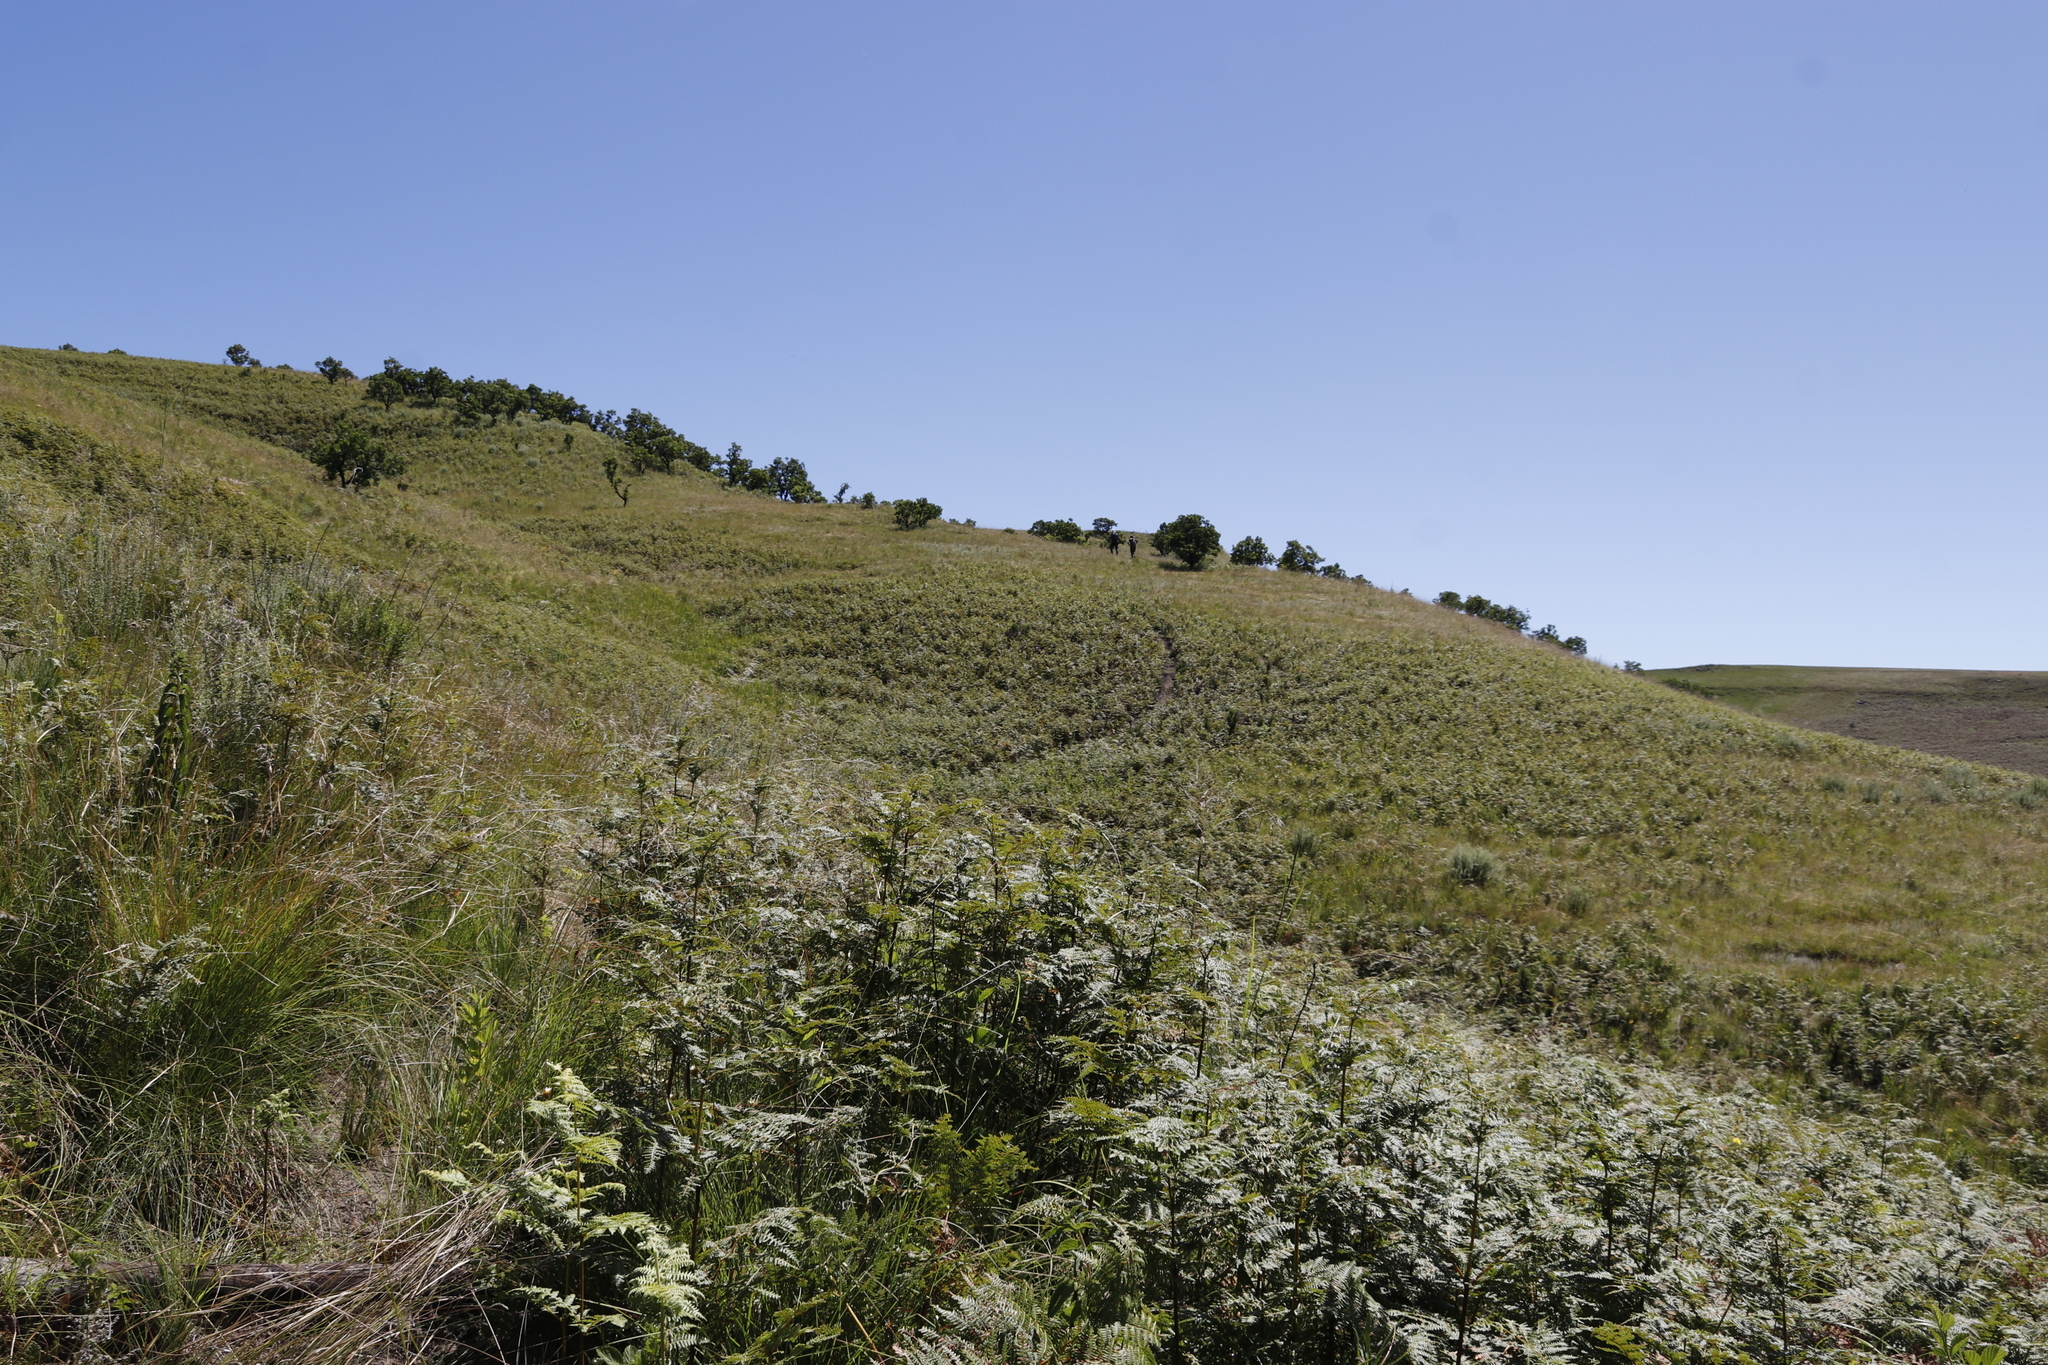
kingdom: Plantae
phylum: Tracheophyta
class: Polypodiopsida
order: Polypodiales
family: Dennstaedtiaceae
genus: Pteridium
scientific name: Pteridium aquilinum
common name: Bracken
